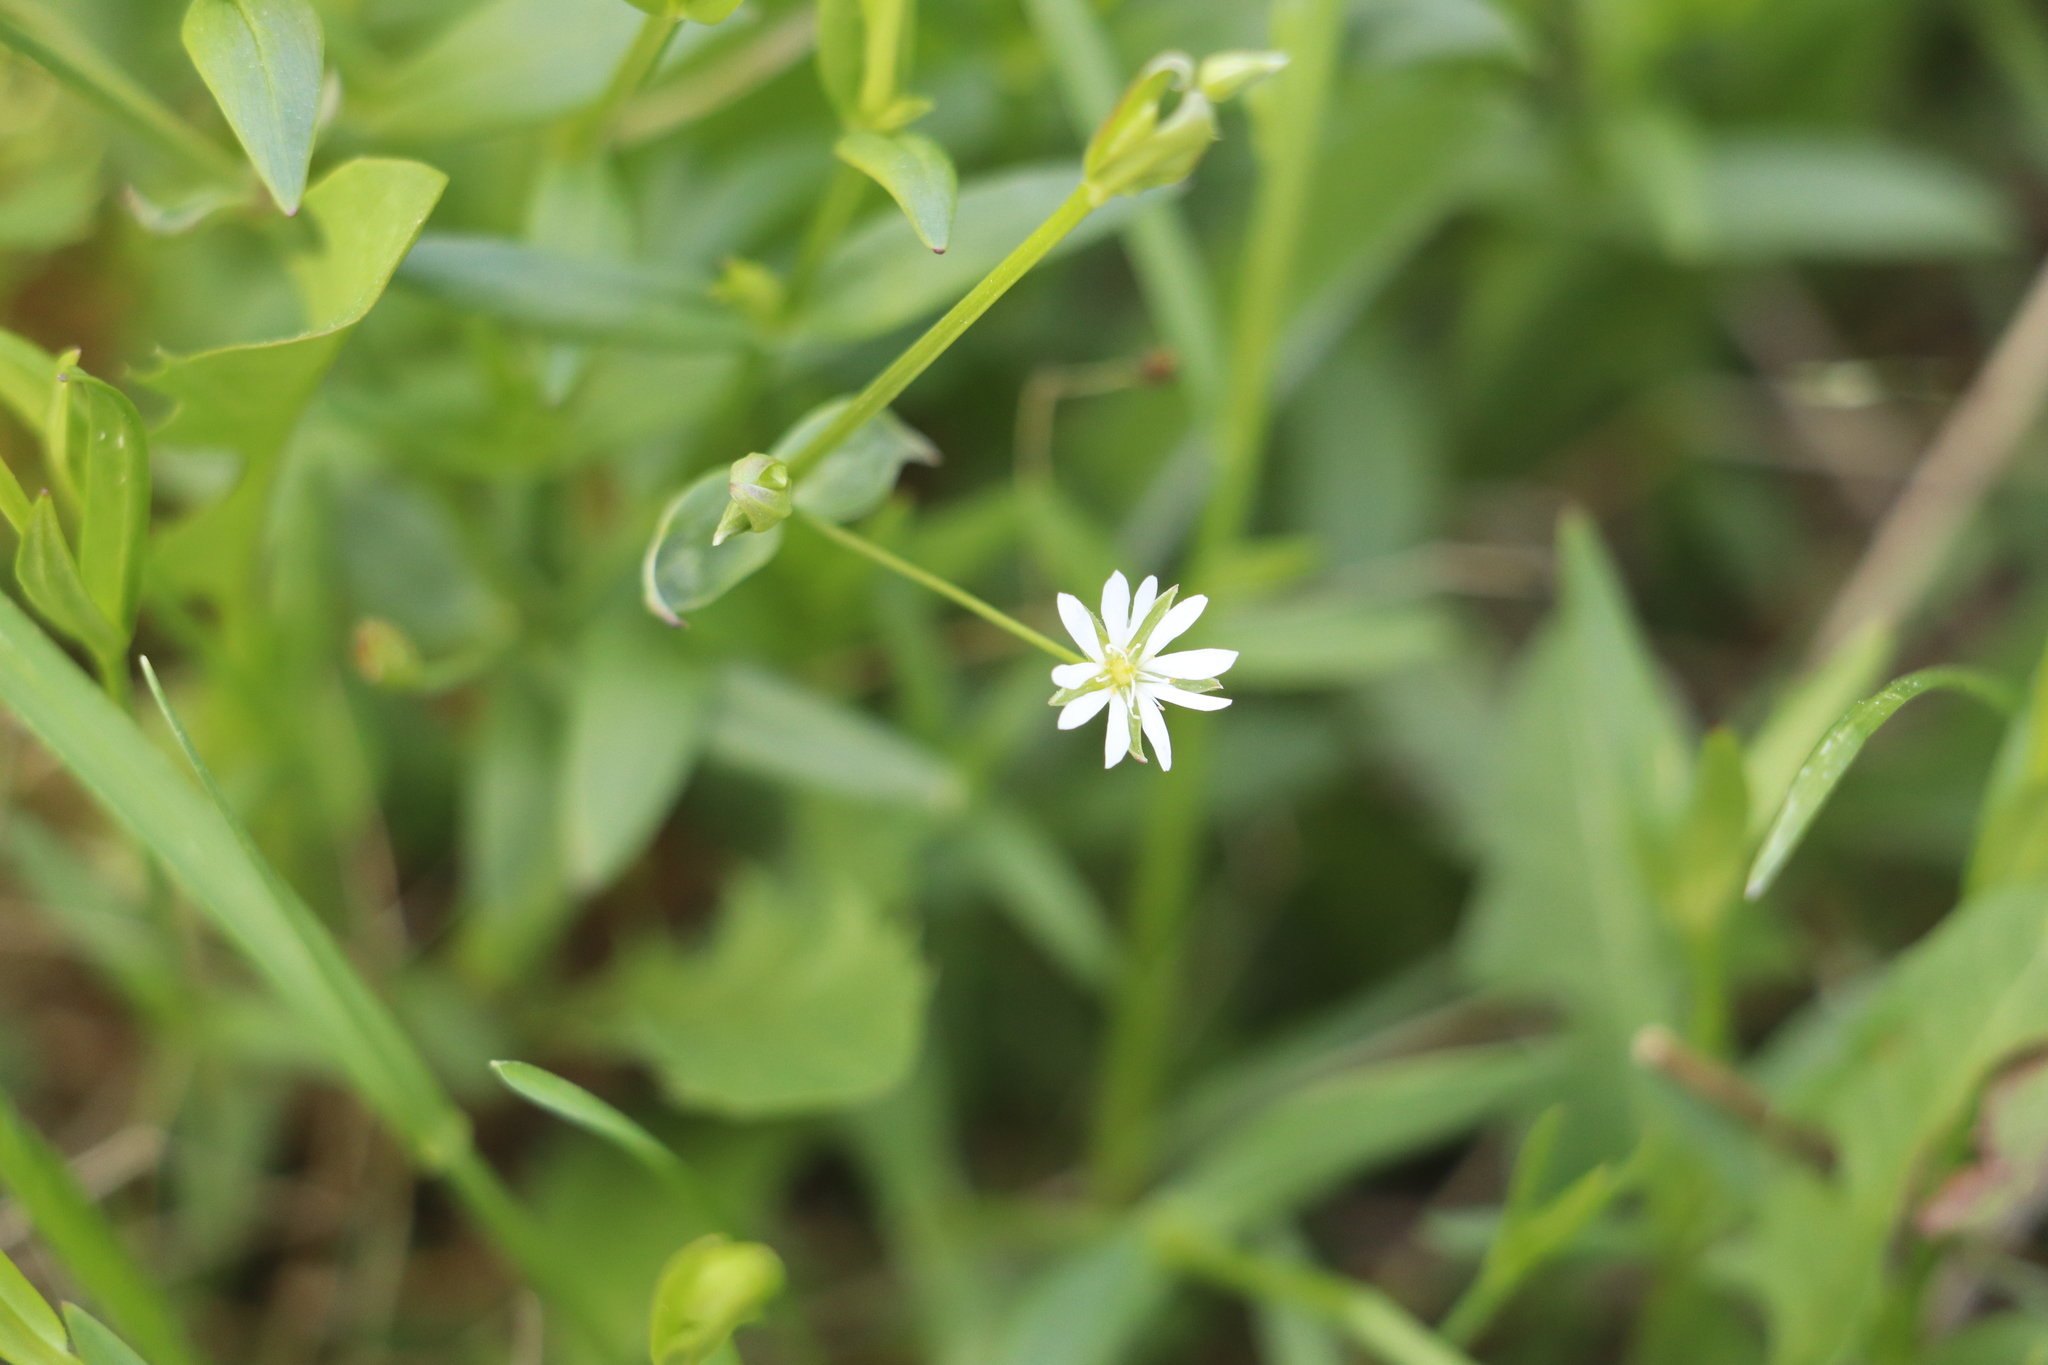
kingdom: Plantae
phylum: Tracheophyta
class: Magnoliopsida
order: Caryophyllales
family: Caryophyllaceae
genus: Stellaria
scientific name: Stellaria graminea
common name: Grass-like starwort
